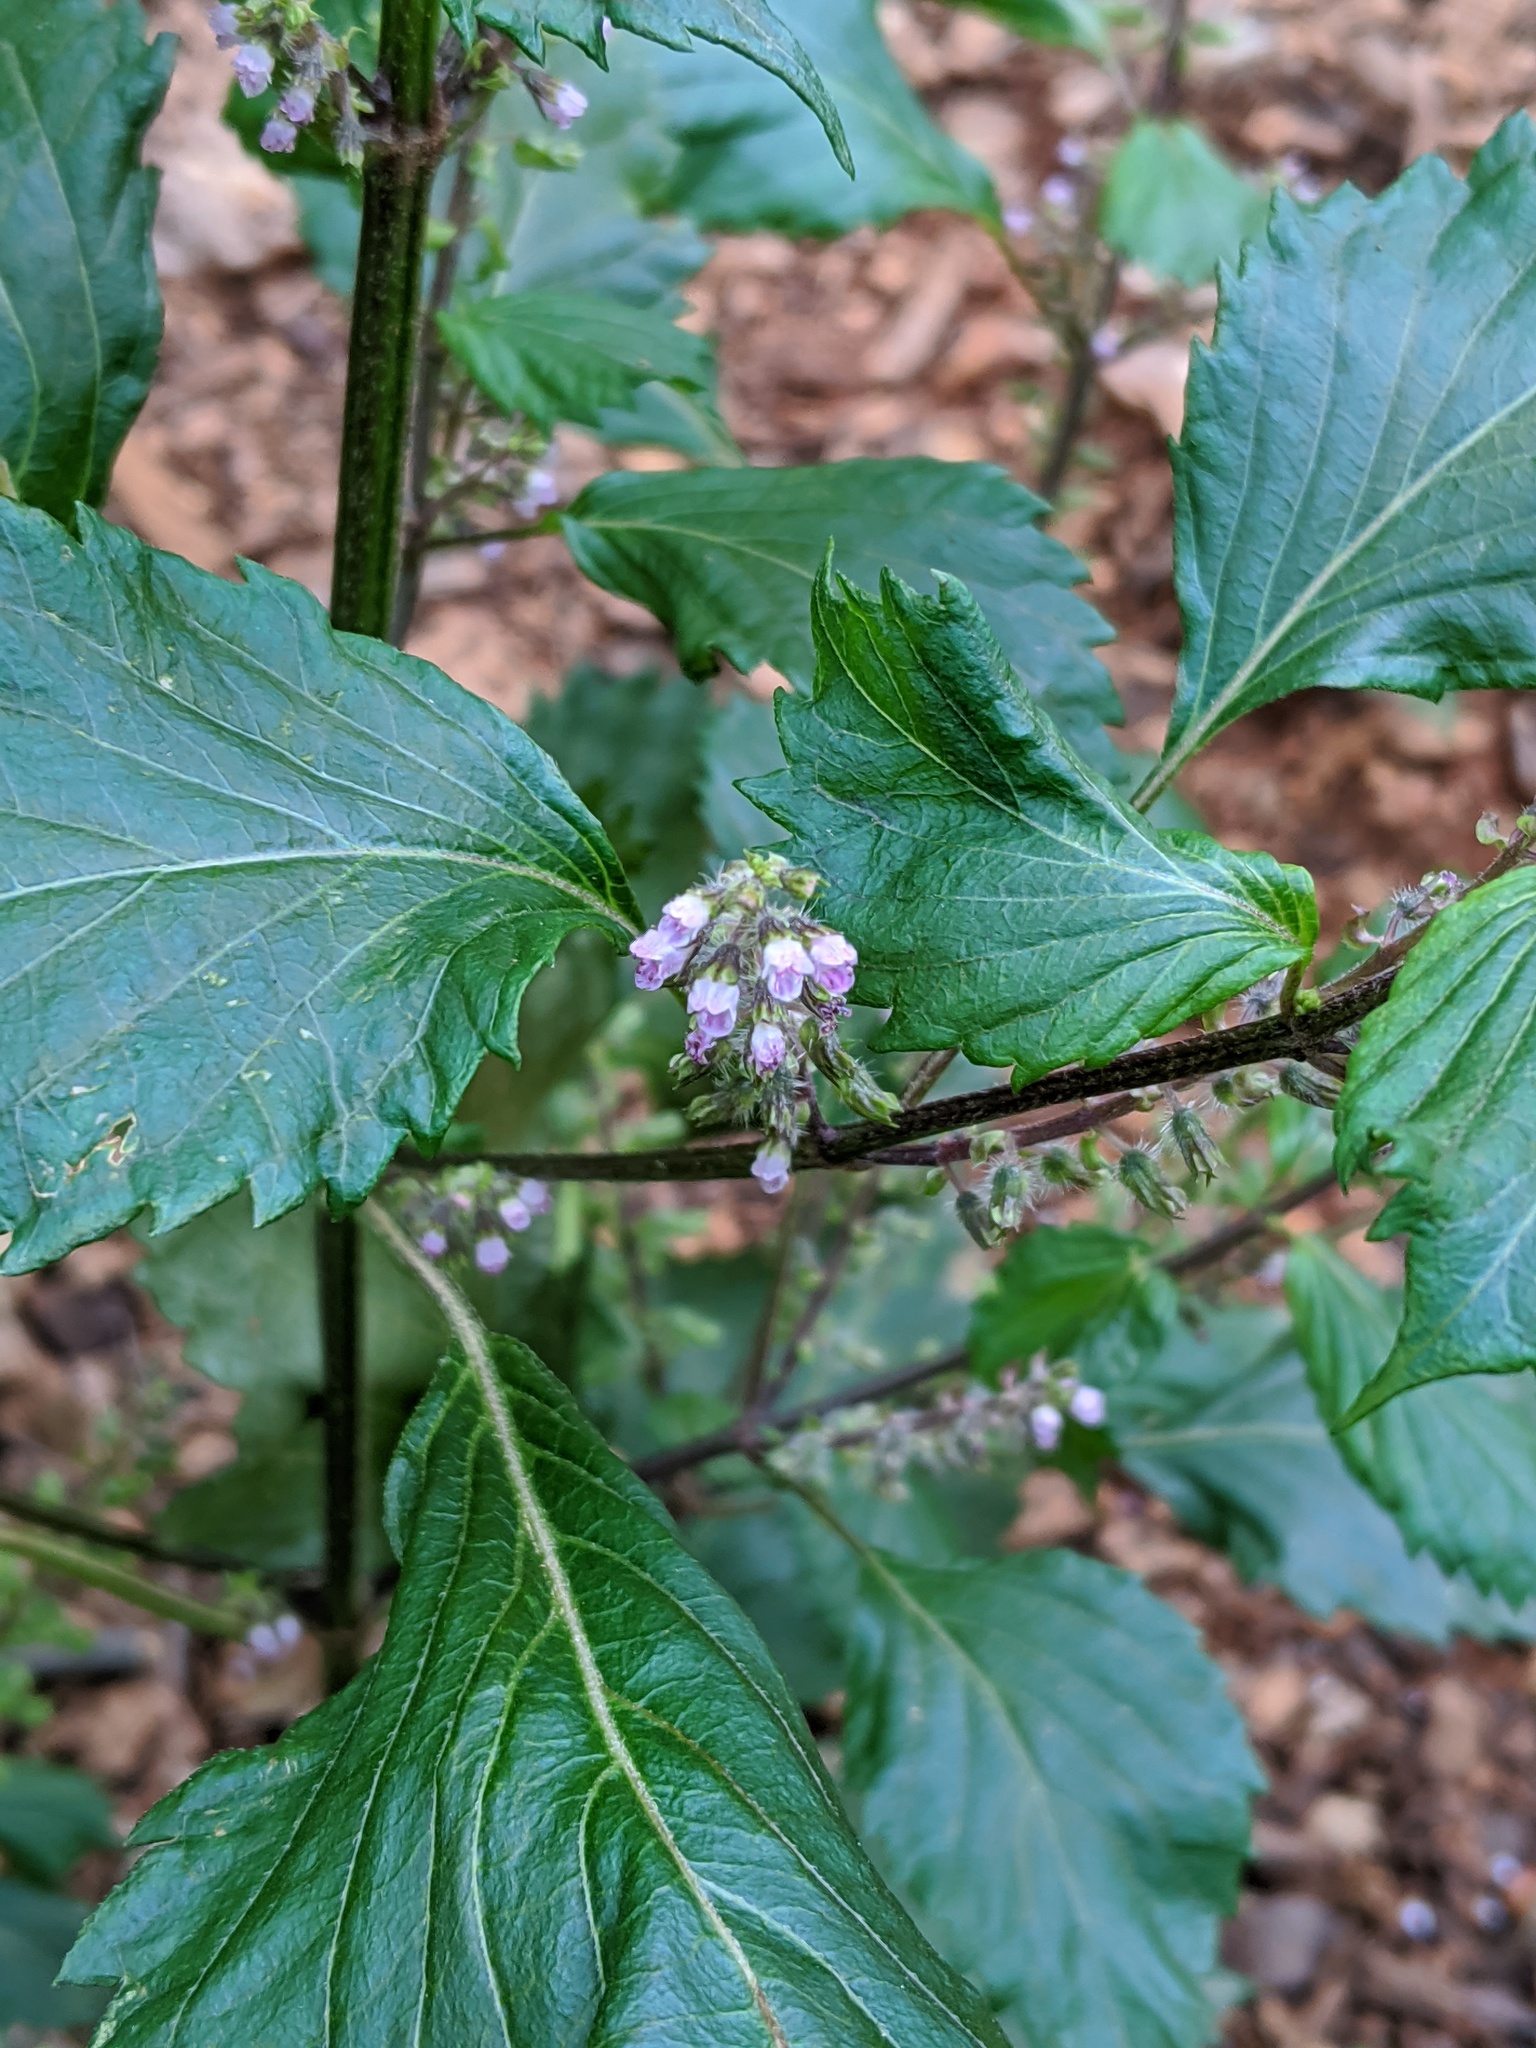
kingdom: Plantae
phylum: Tracheophyta
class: Magnoliopsida
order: Lamiales
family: Lamiaceae
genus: Perilla
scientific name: Perilla frutescens
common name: Perilla
